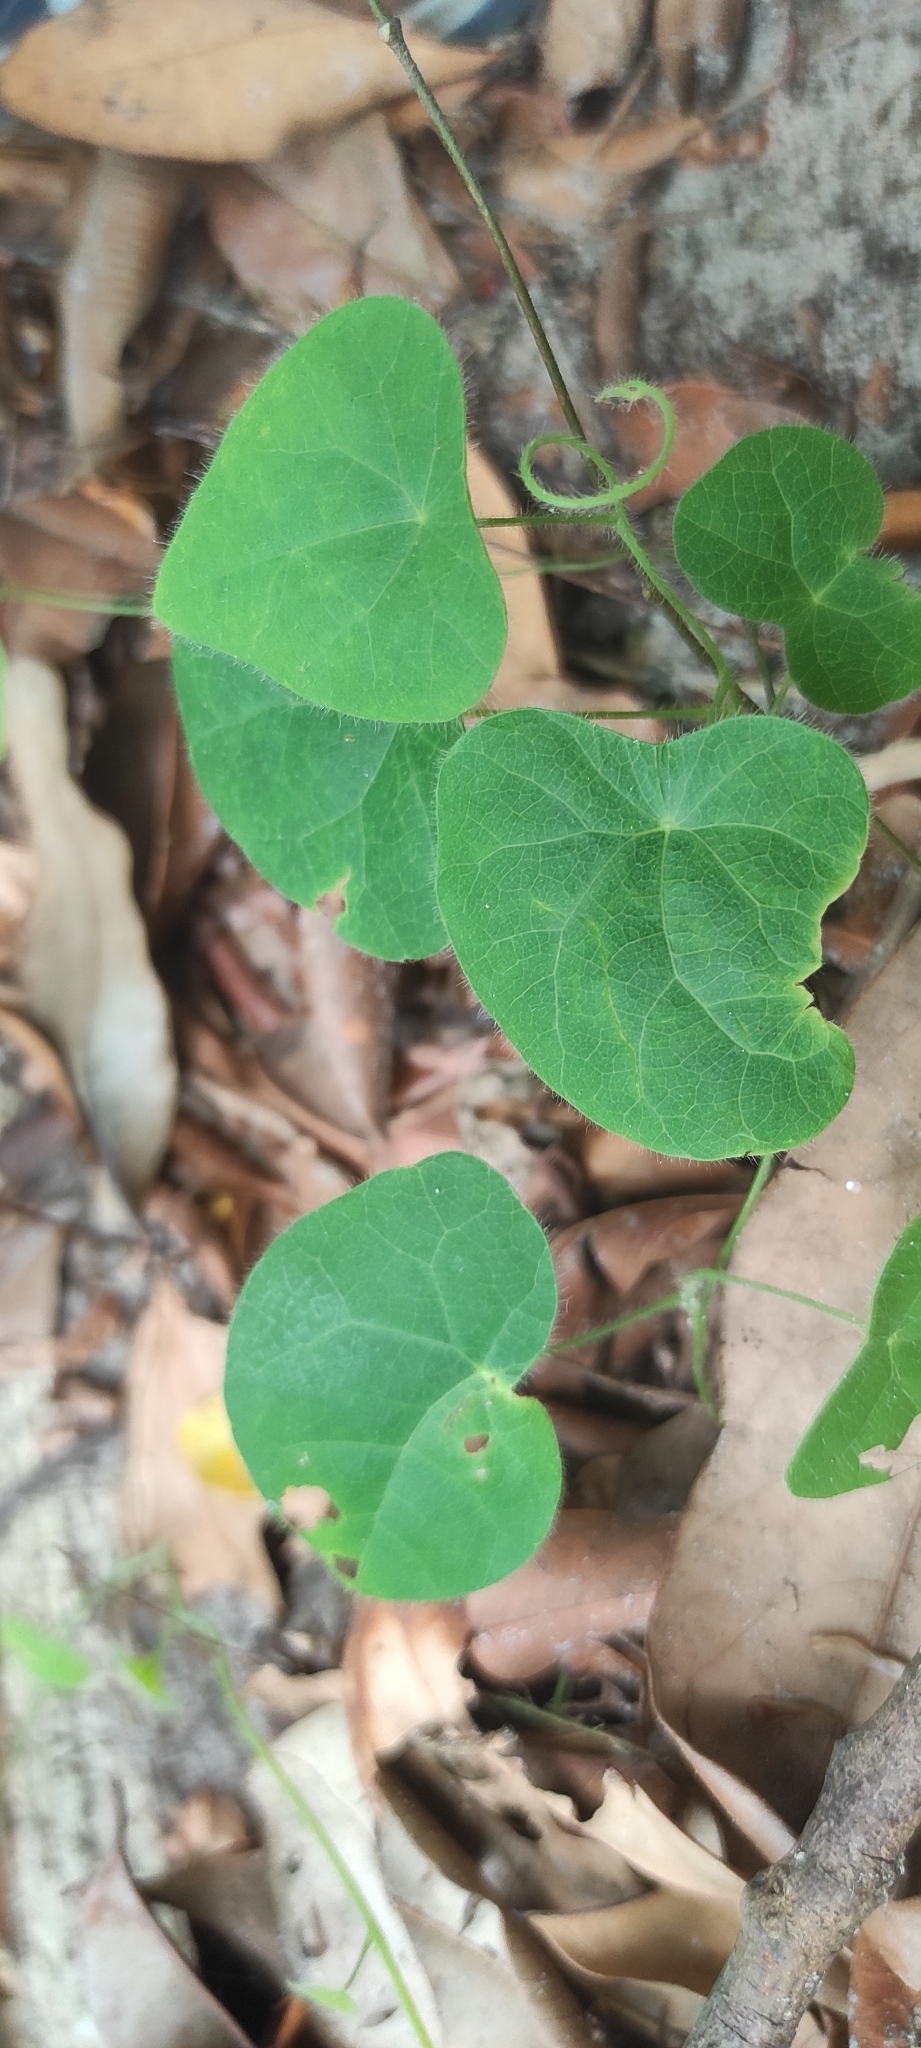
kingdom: Plantae
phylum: Tracheophyta
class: Magnoliopsida
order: Ranunculales
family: Menispermaceae
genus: Cyclea
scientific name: Cyclea peltata
